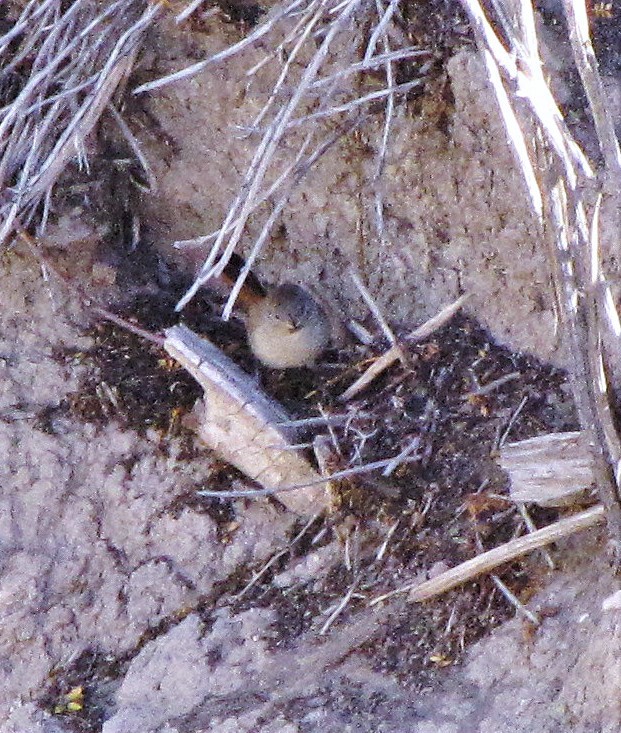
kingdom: Animalia
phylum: Chordata
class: Aves
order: Passeriformes
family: Furnariidae
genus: Asthenes
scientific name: Asthenes steinbachi
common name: Steinbach's canastero
